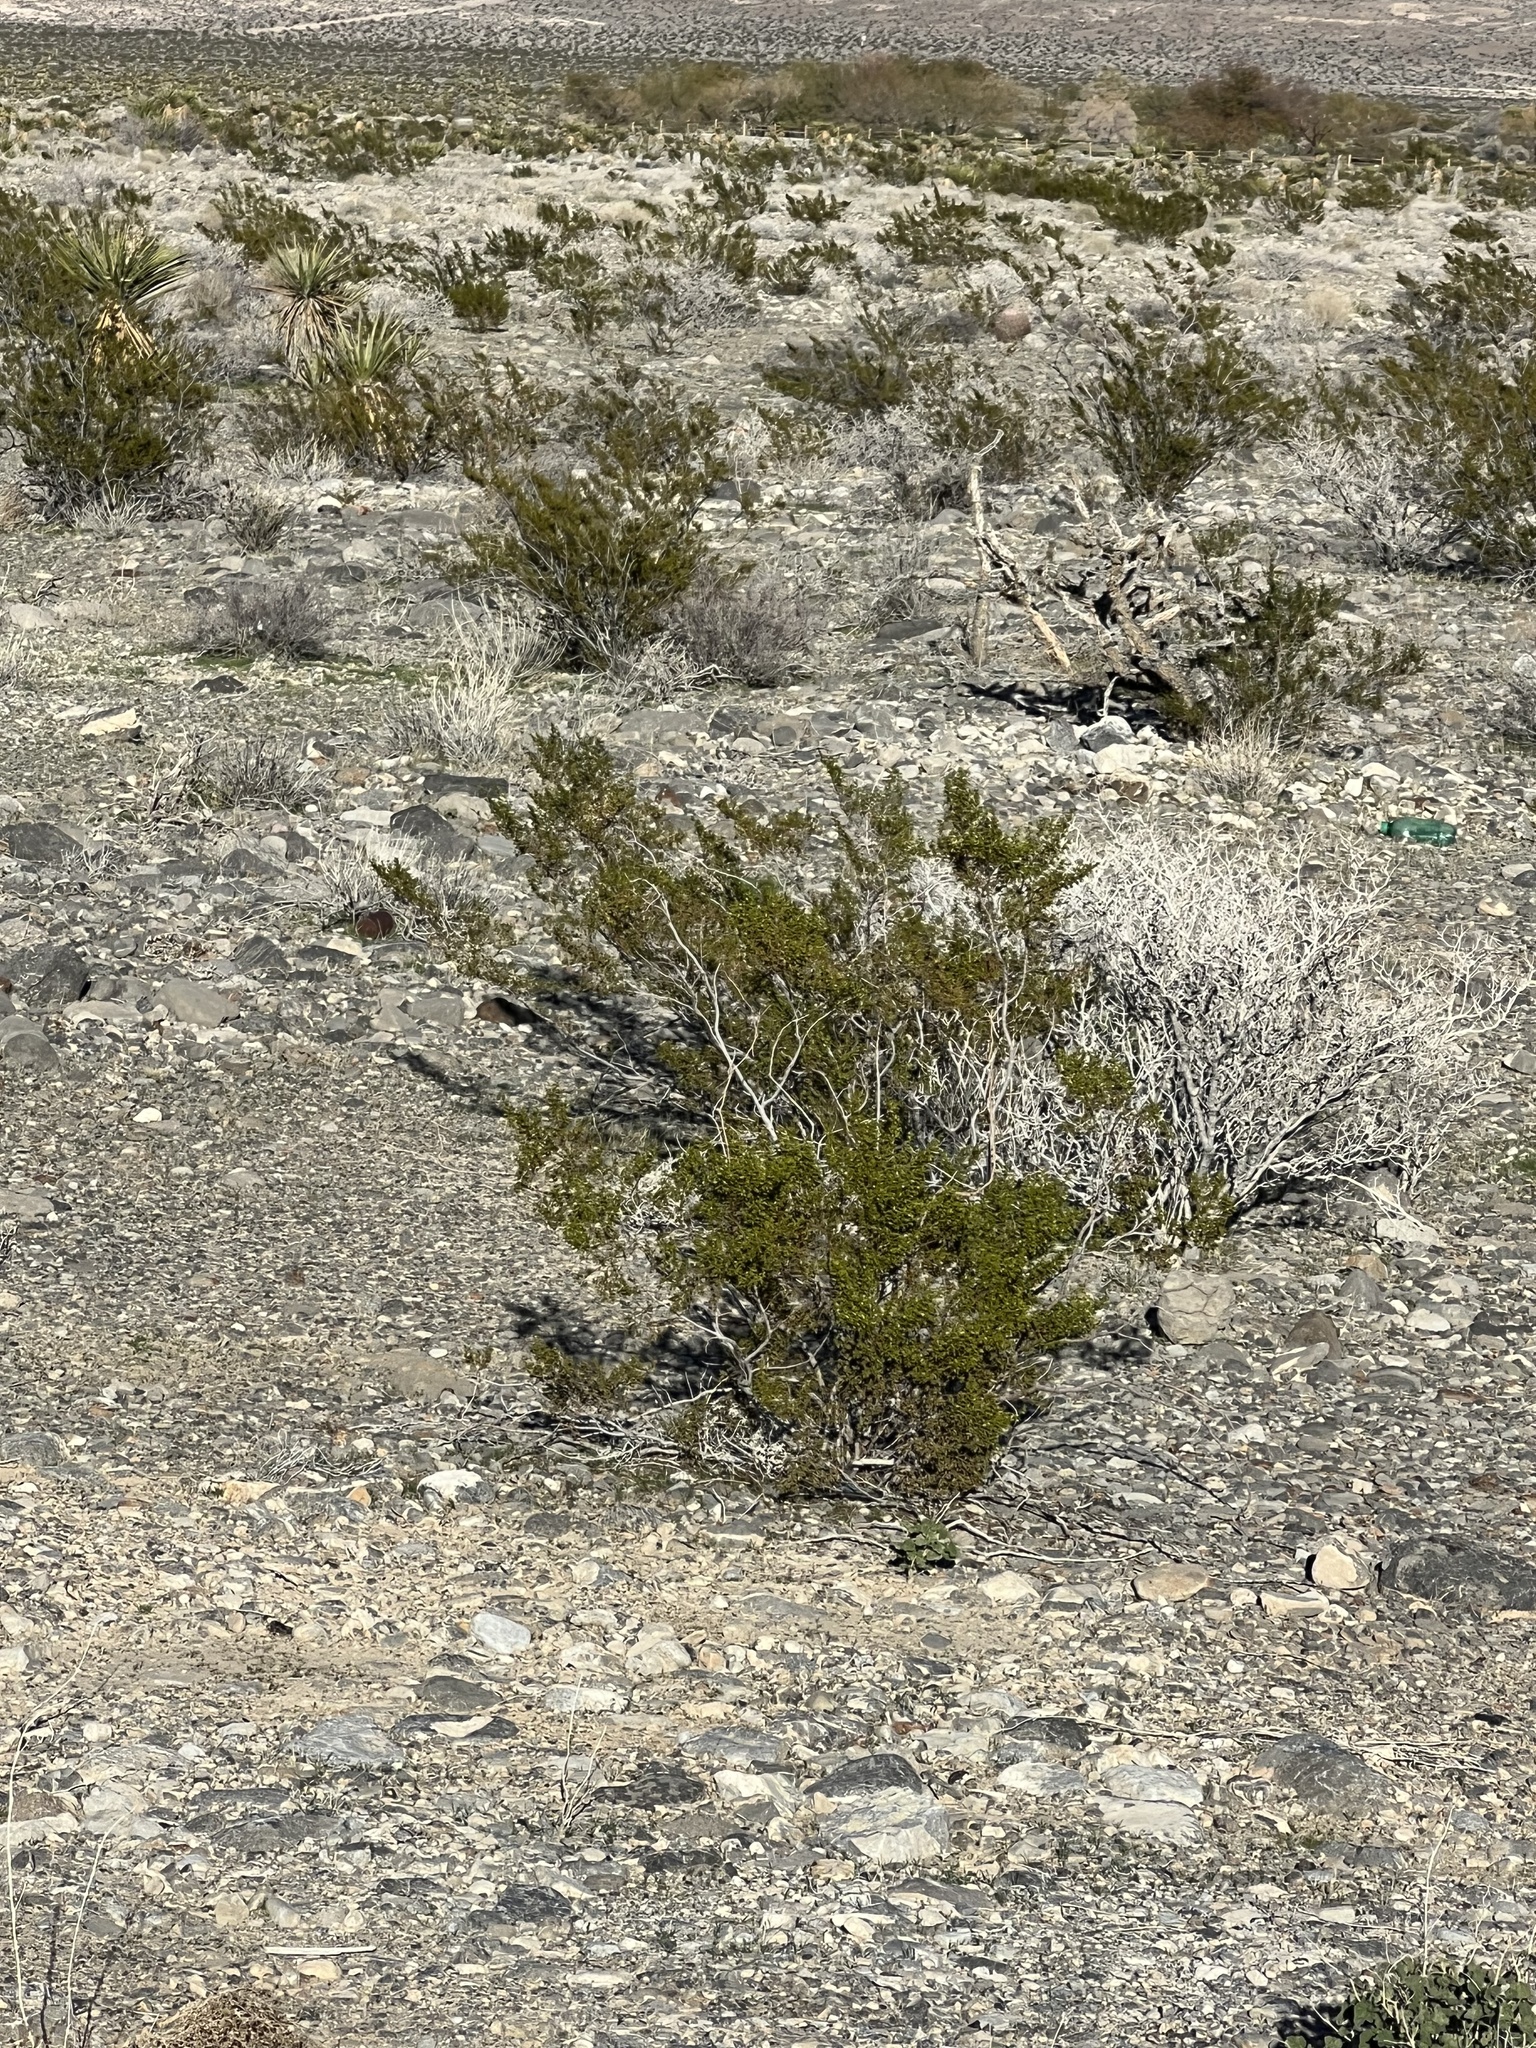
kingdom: Plantae
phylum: Tracheophyta
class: Magnoliopsida
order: Zygophyllales
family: Zygophyllaceae
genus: Larrea
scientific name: Larrea tridentata
